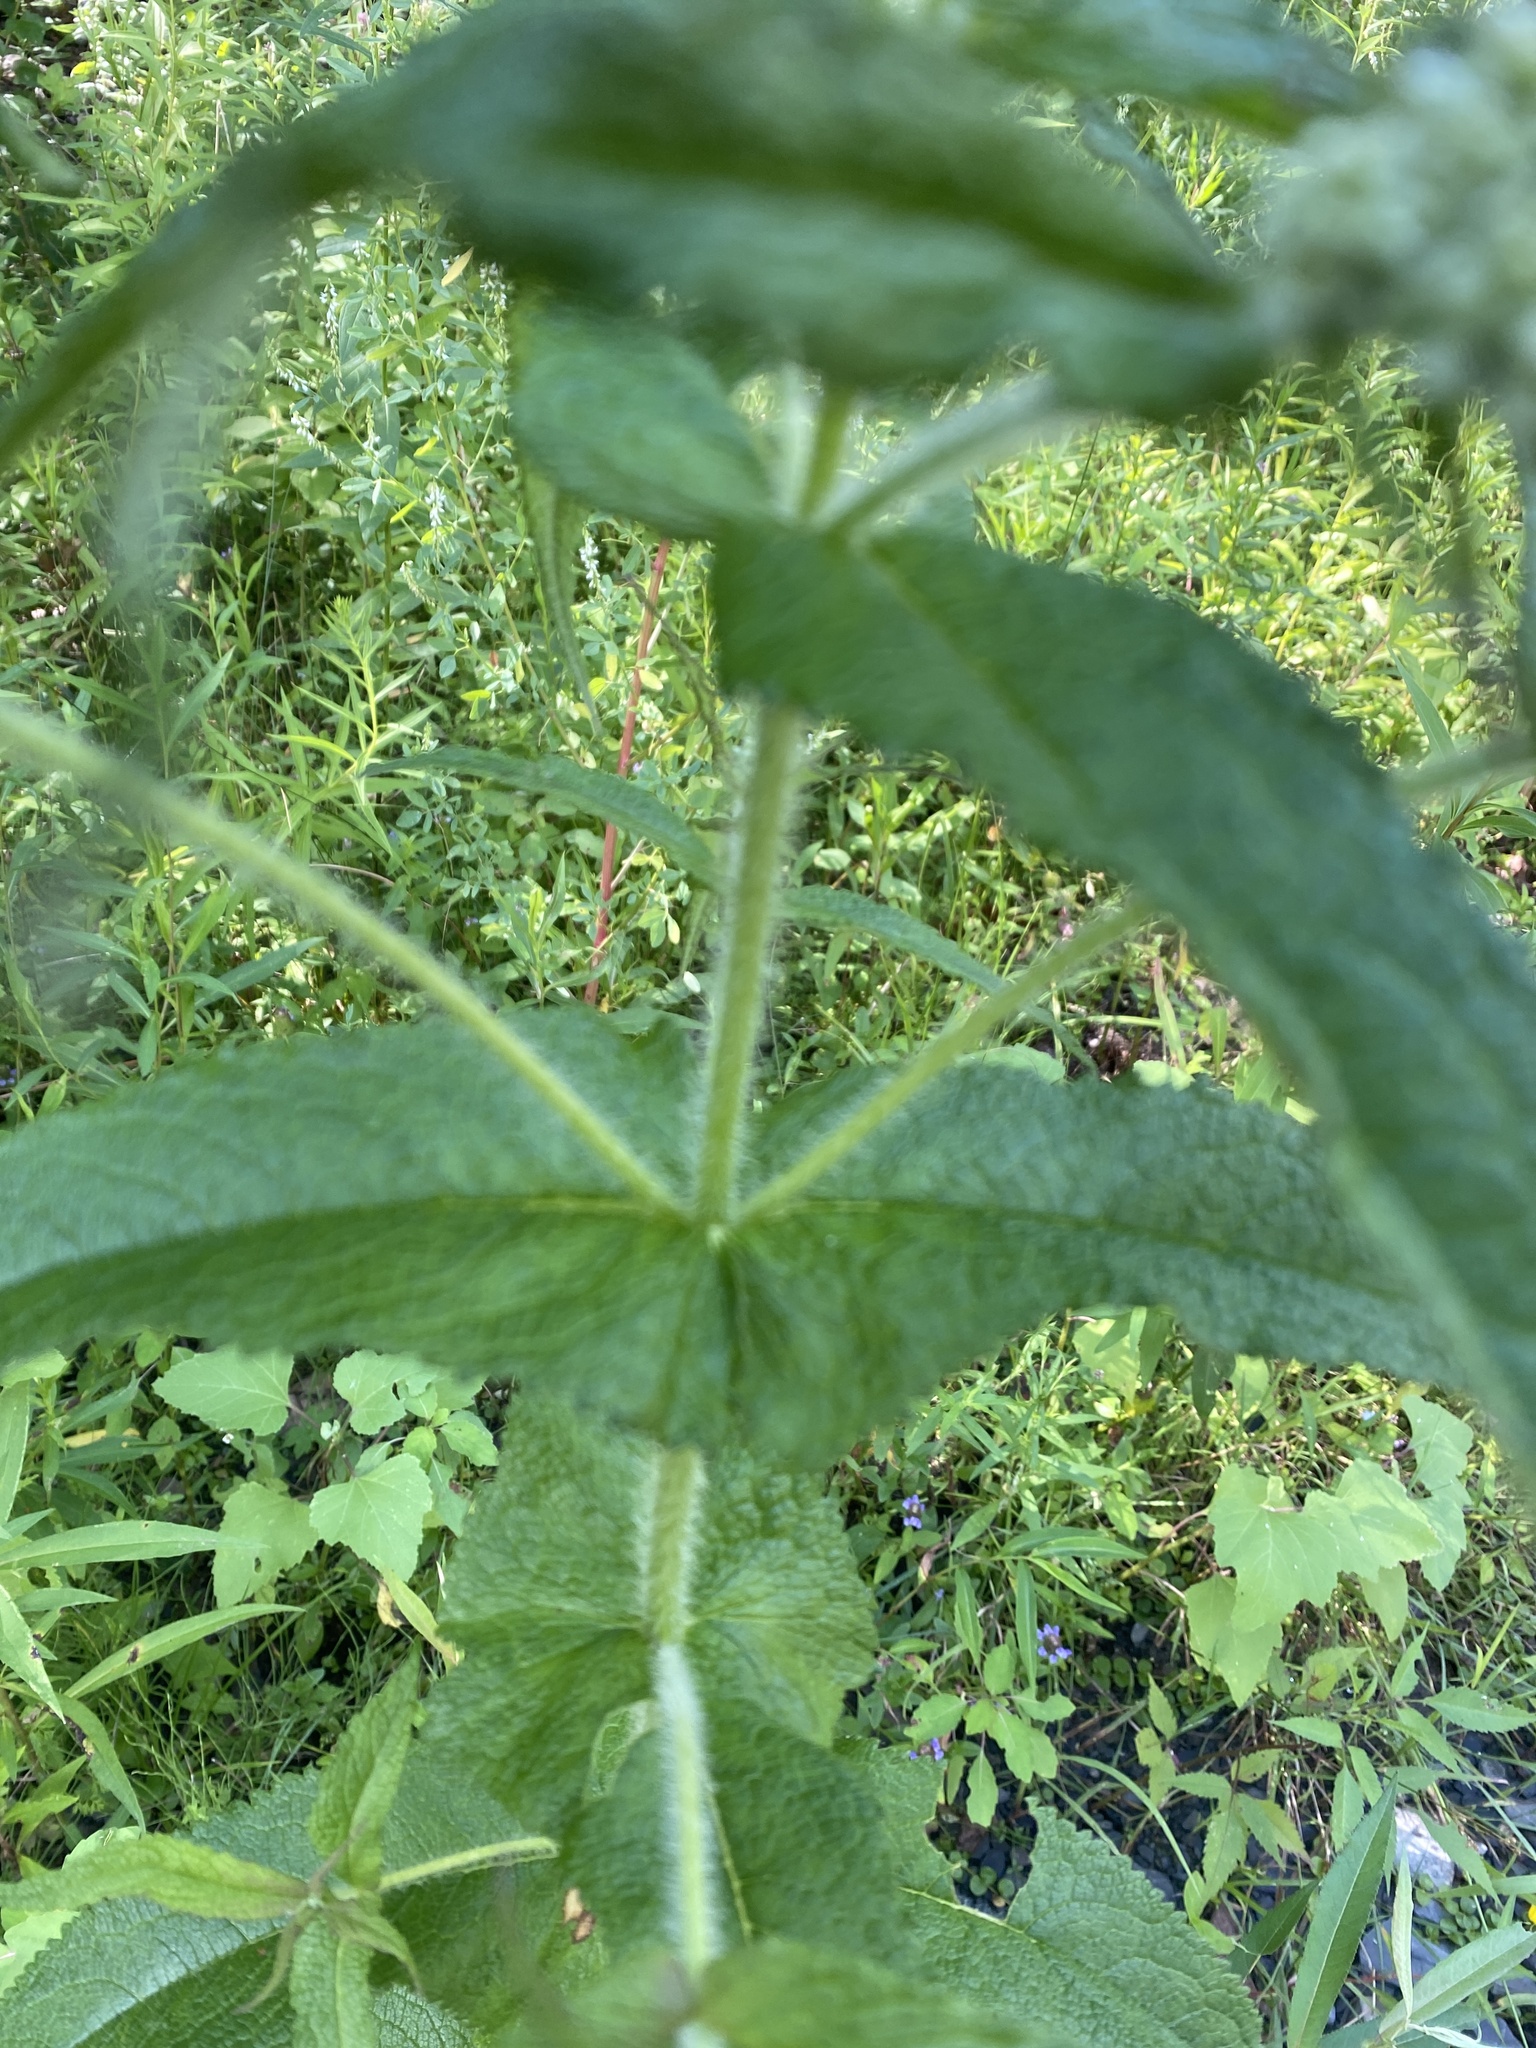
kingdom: Plantae
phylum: Tracheophyta
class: Magnoliopsida
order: Asterales
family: Asteraceae
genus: Eupatorium
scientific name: Eupatorium perfoliatum
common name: Boneset
